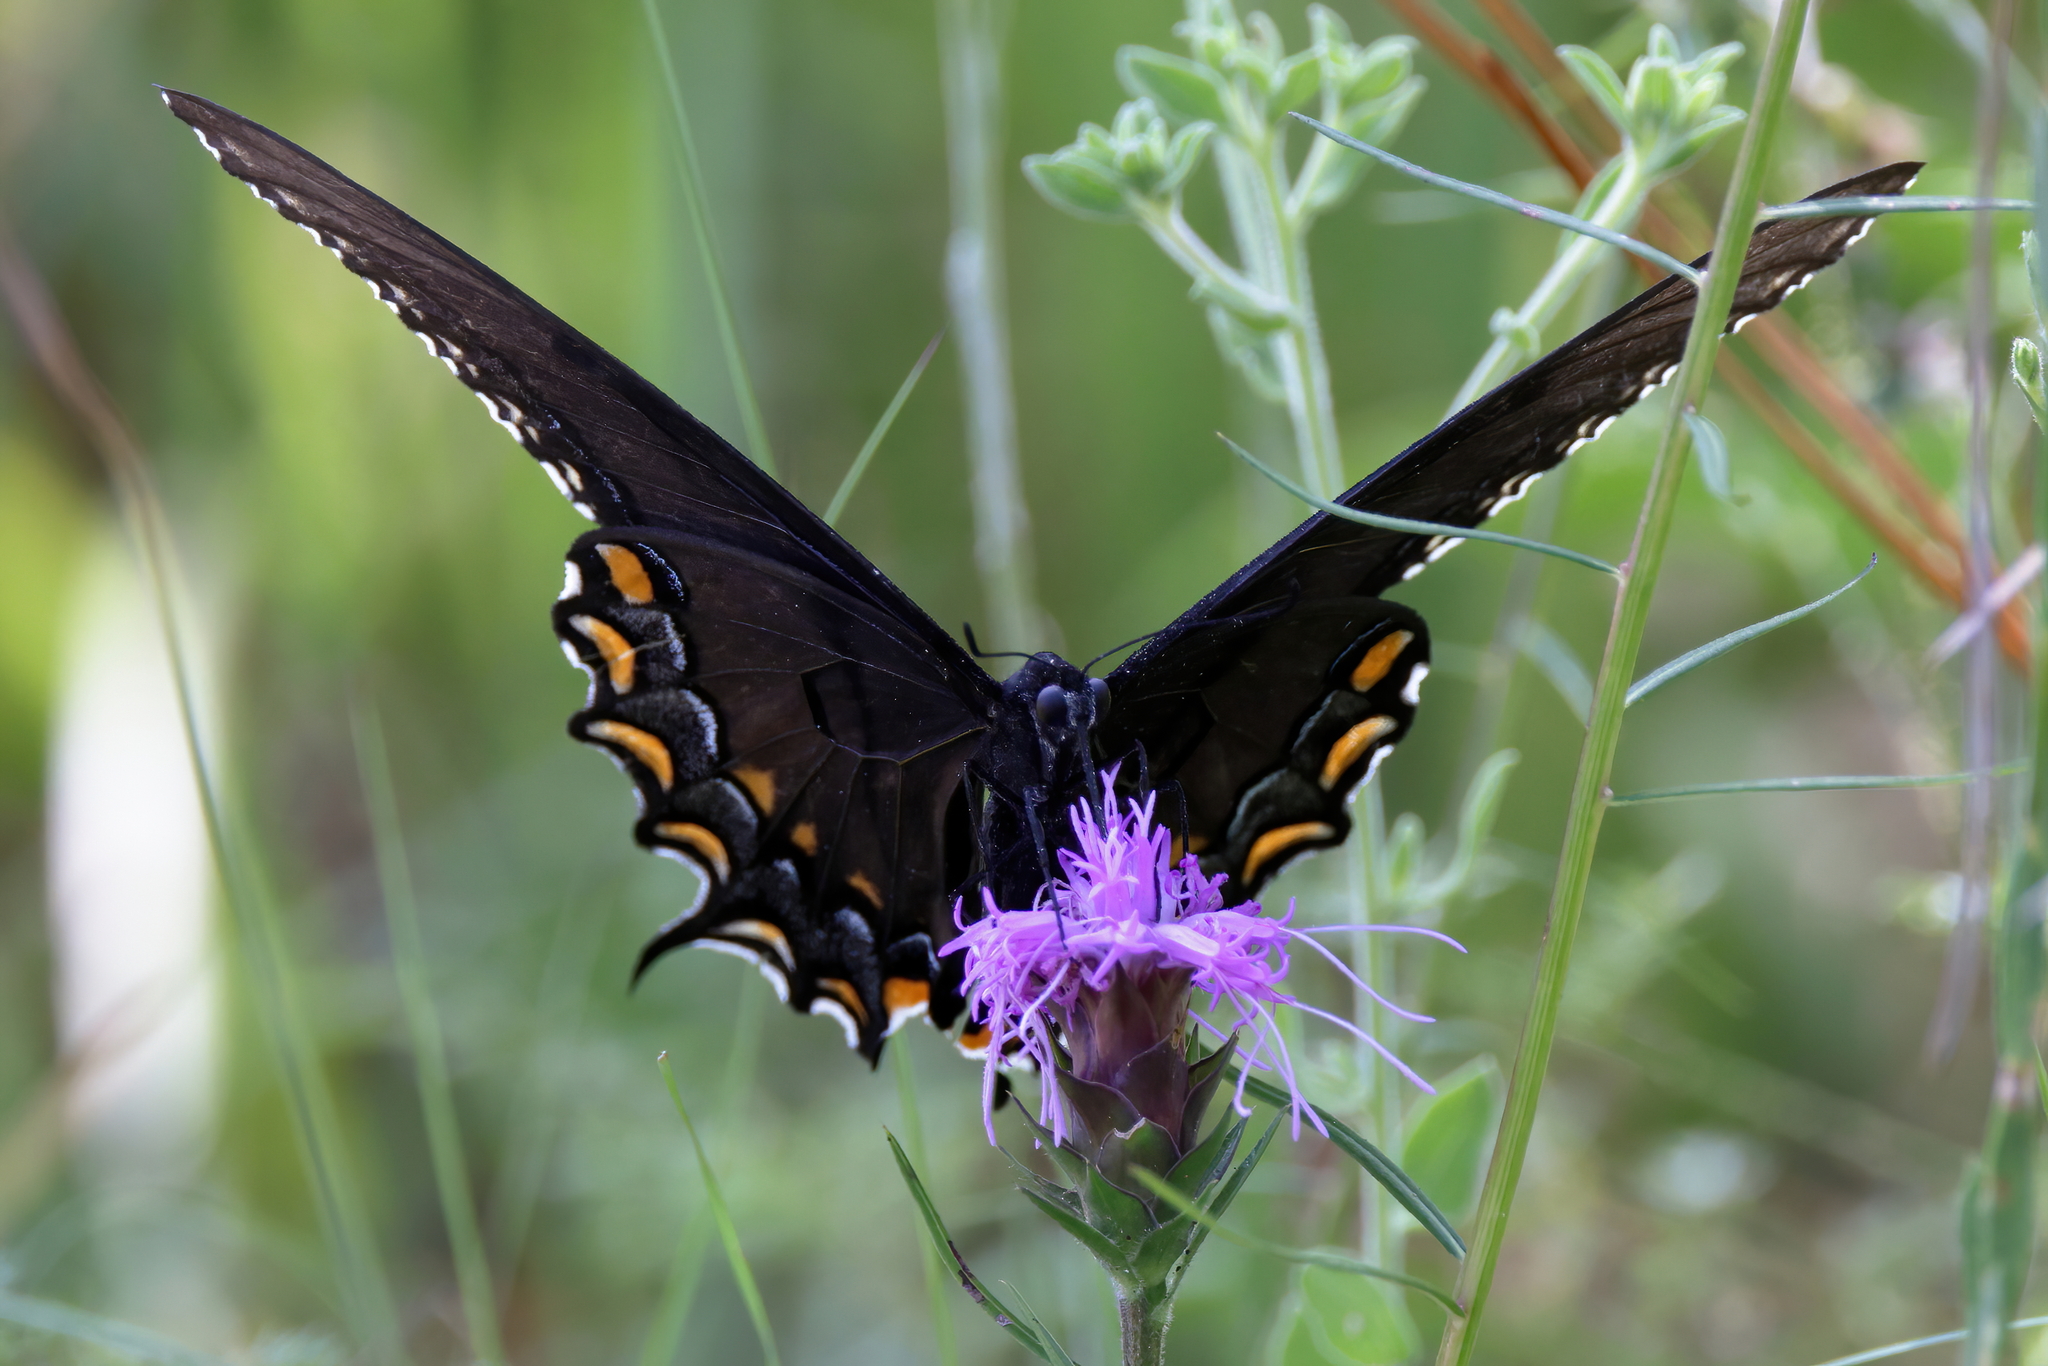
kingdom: Animalia
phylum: Arthropoda
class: Insecta
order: Lepidoptera
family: Papilionidae
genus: Papilio
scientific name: Papilio glaucus
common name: Tiger swallowtail
